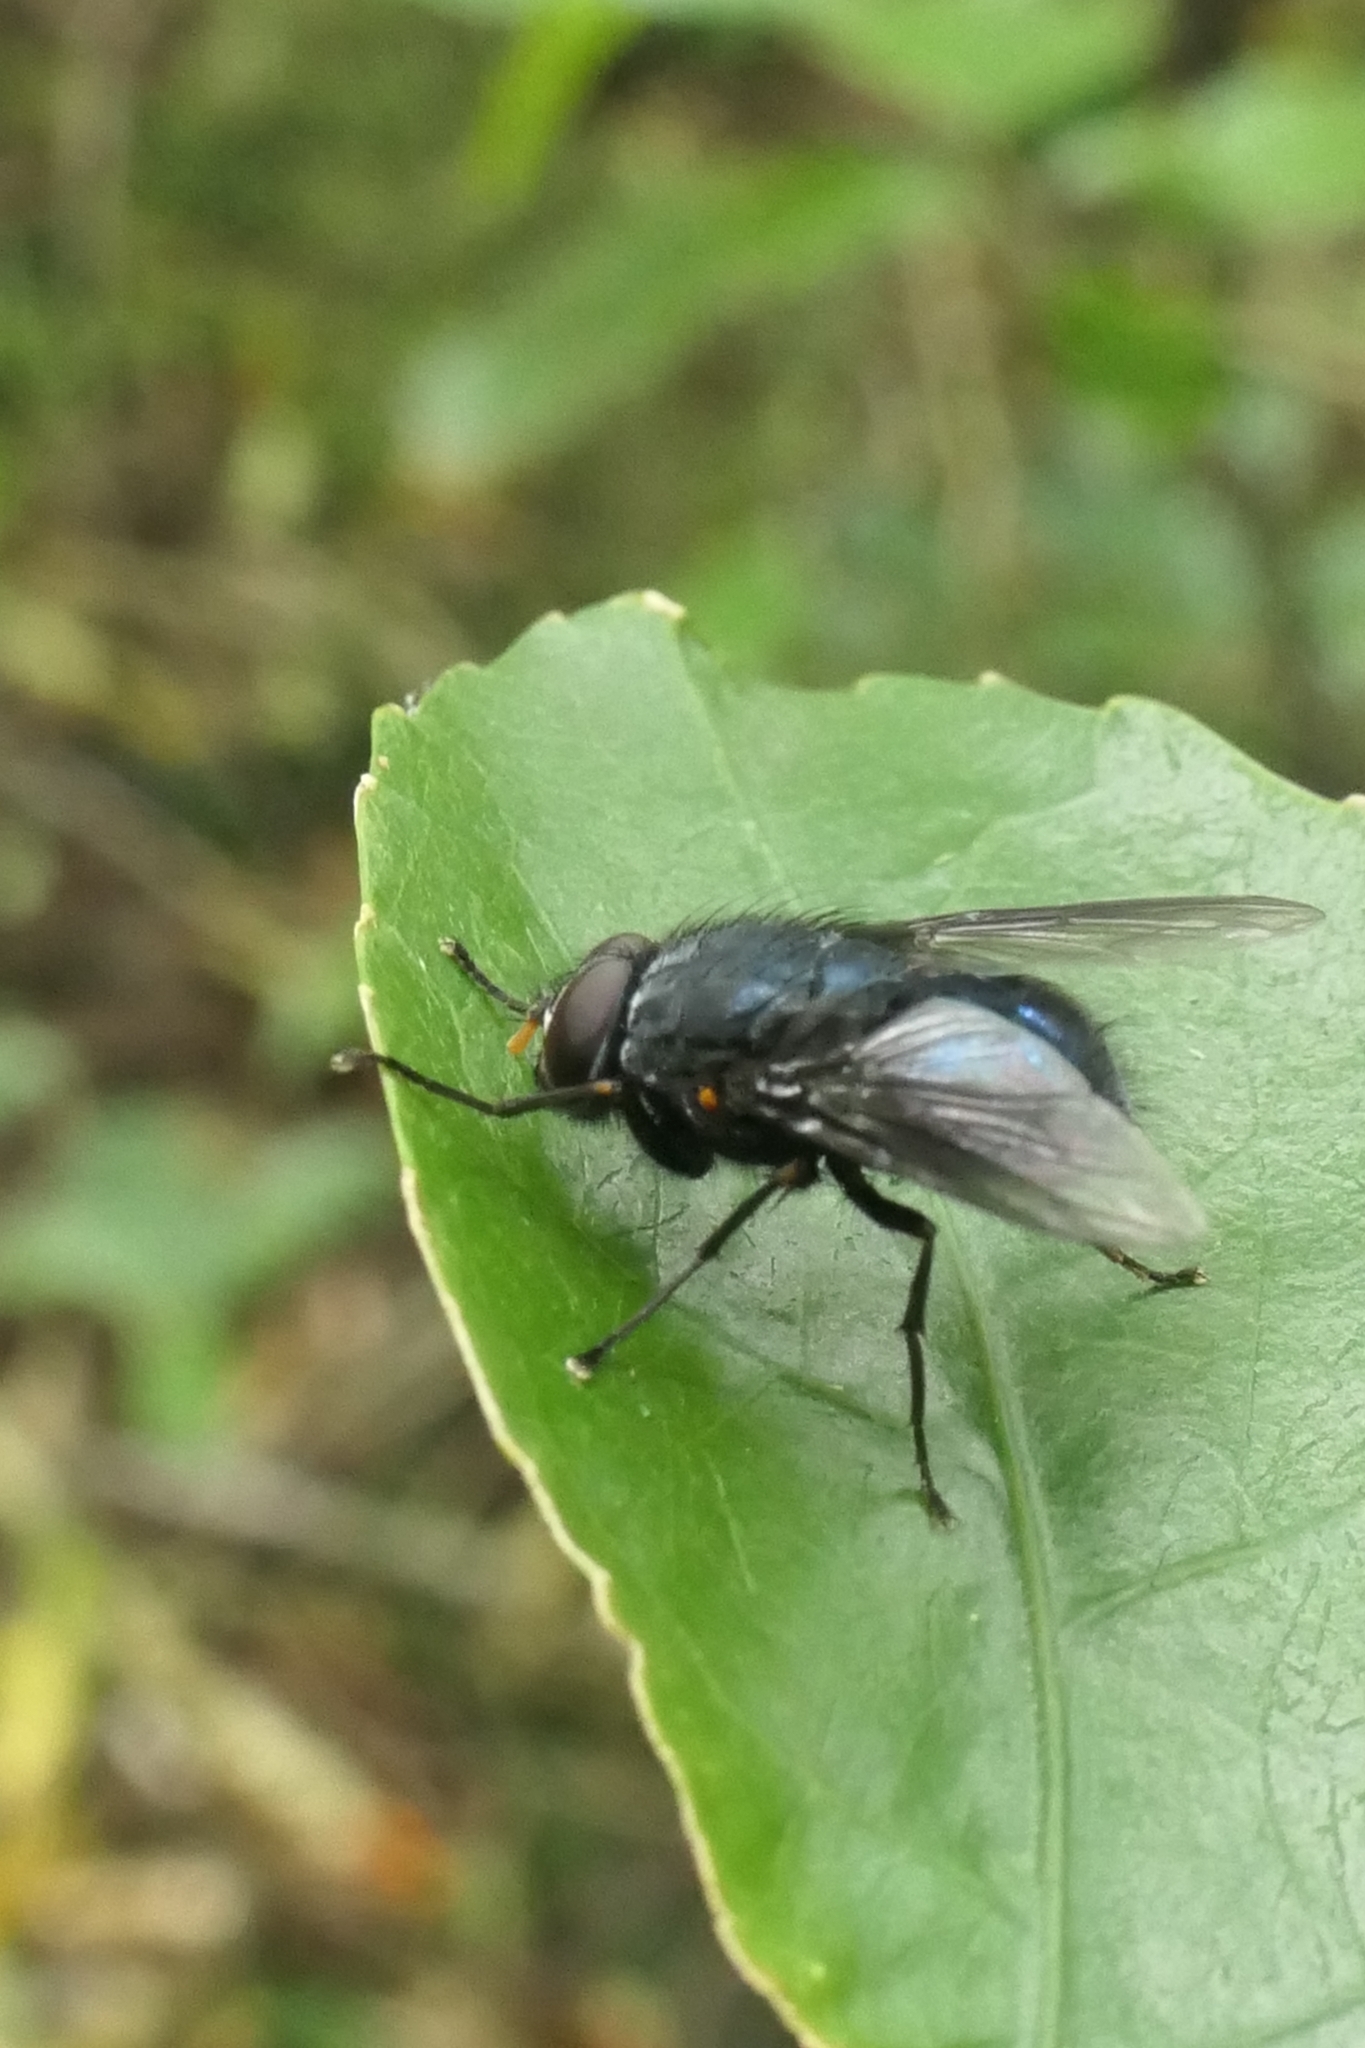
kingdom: Animalia
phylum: Arthropoda
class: Insecta
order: Diptera
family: Muscidae
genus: Calliphoroides
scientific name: Calliphoroides antennatis
